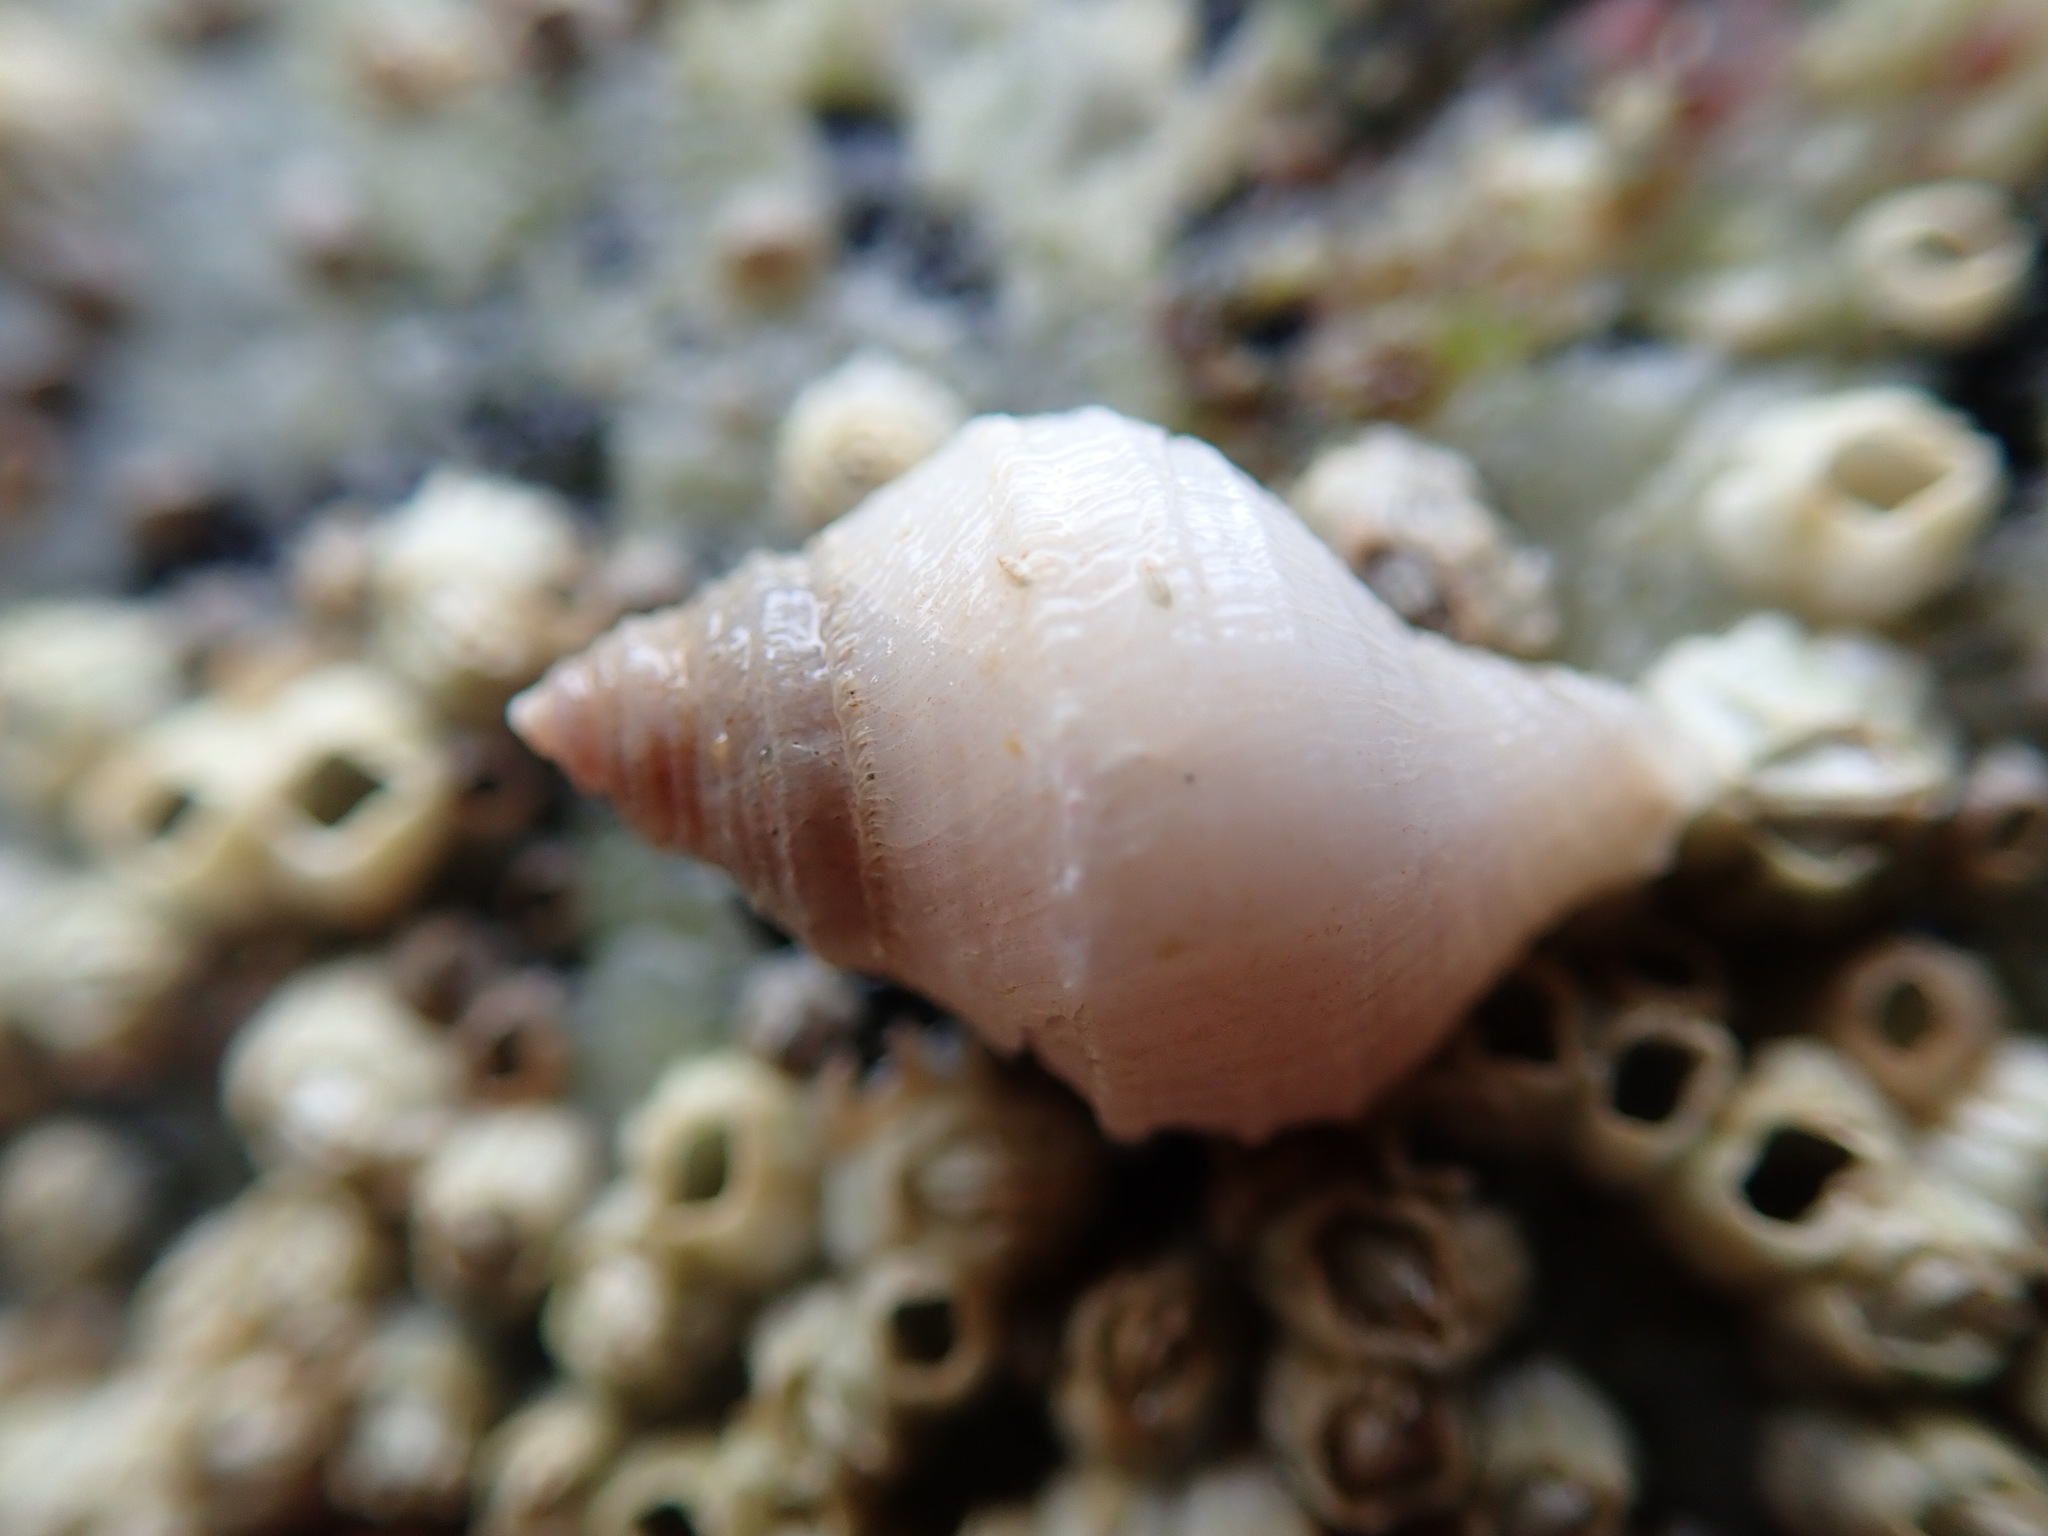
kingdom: Animalia
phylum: Mollusca
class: Gastropoda
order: Neogastropoda
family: Muricidae
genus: Nucella
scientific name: Nucella lamellosa
